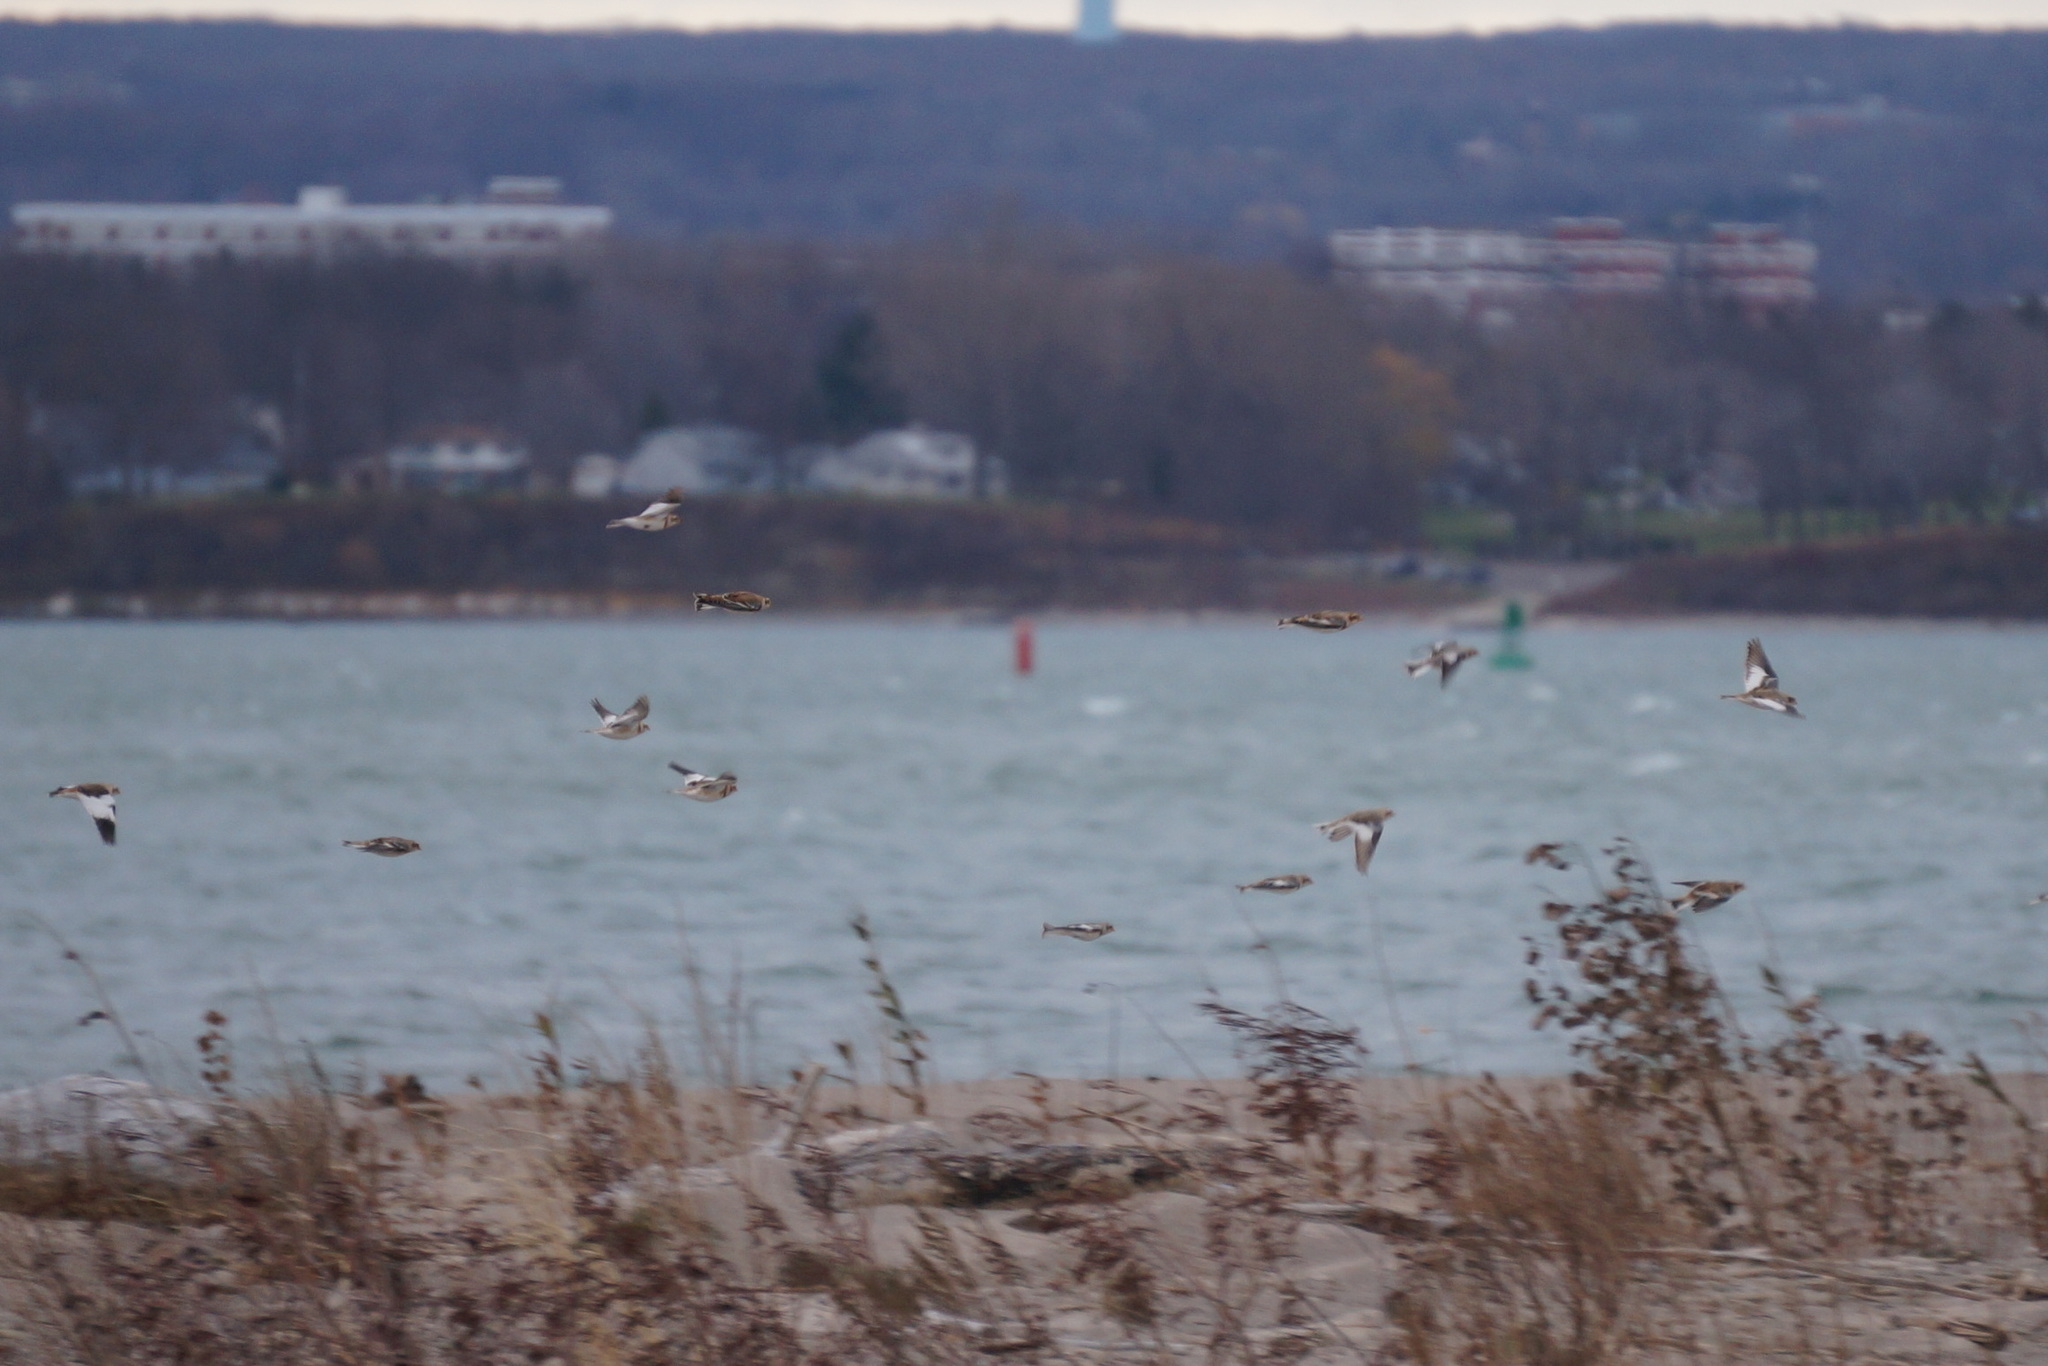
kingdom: Animalia
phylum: Chordata
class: Aves
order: Passeriformes
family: Calcariidae
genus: Plectrophenax
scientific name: Plectrophenax nivalis
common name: Snow bunting
